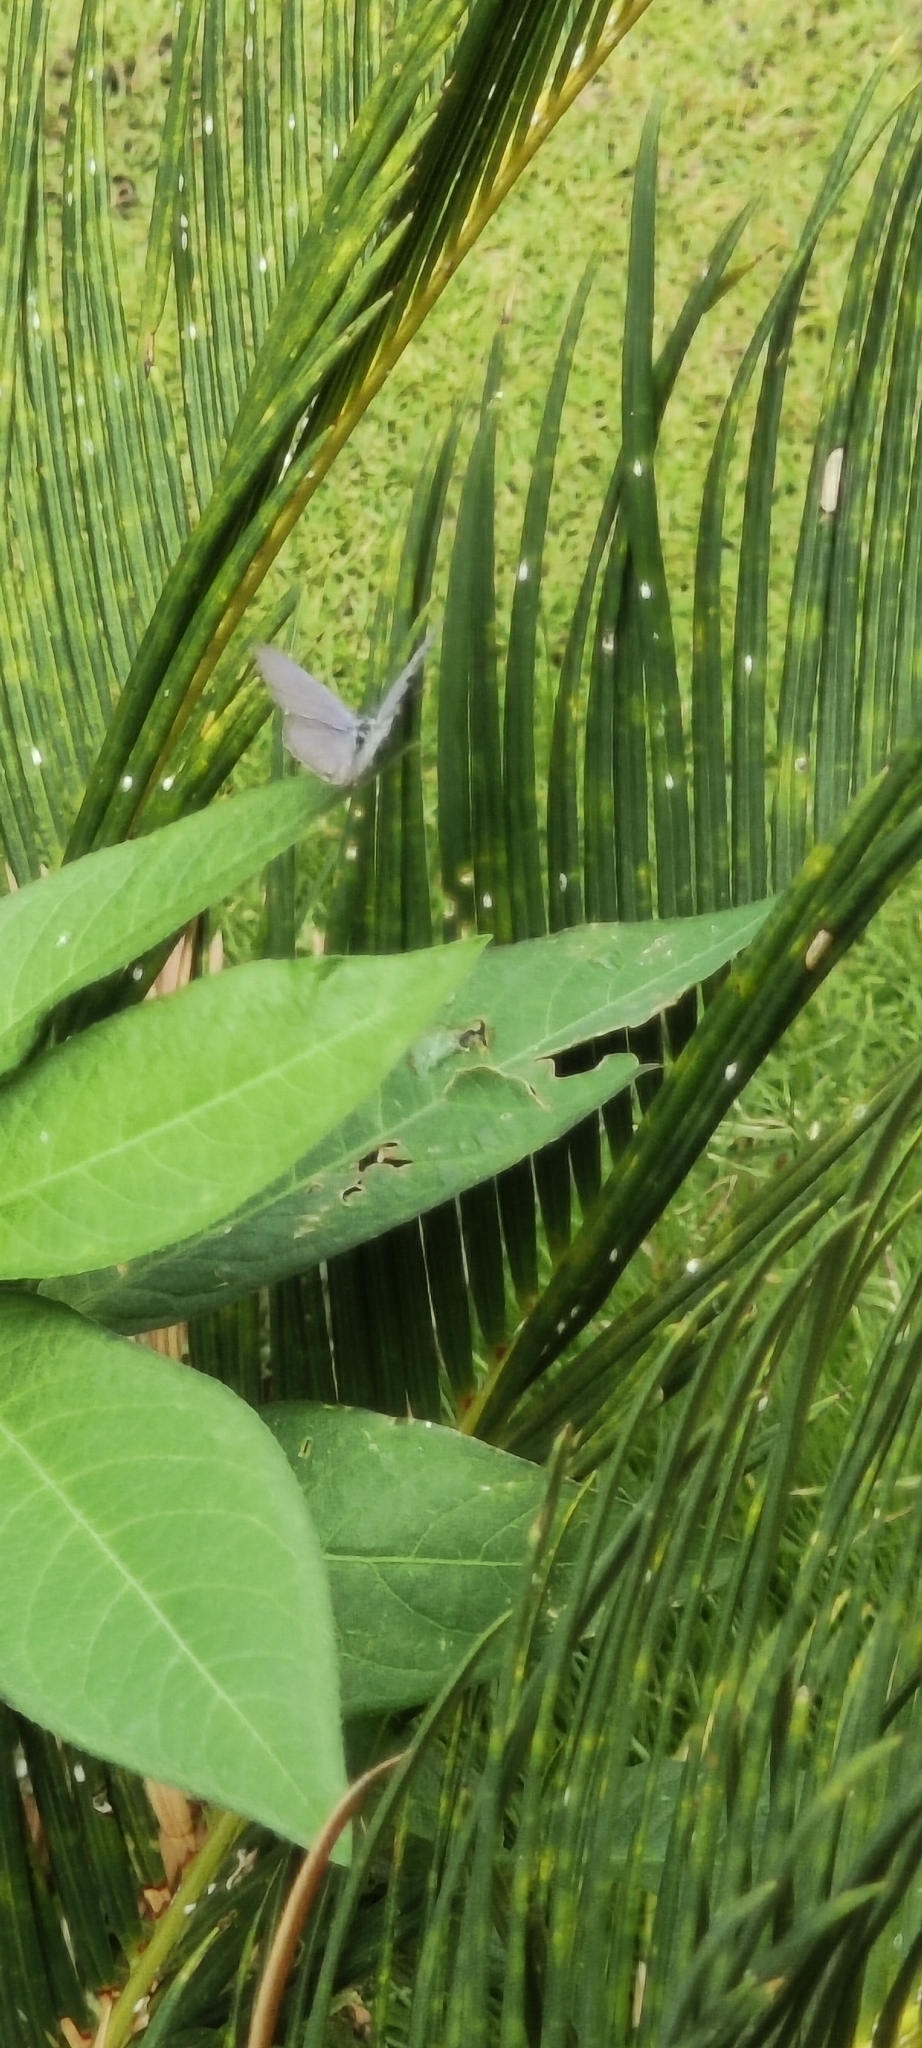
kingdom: Animalia
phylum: Arthropoda
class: Insecta
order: Lepidoptera
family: Lycaenidae
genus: Luthrodes
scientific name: Luthrodes pandava
